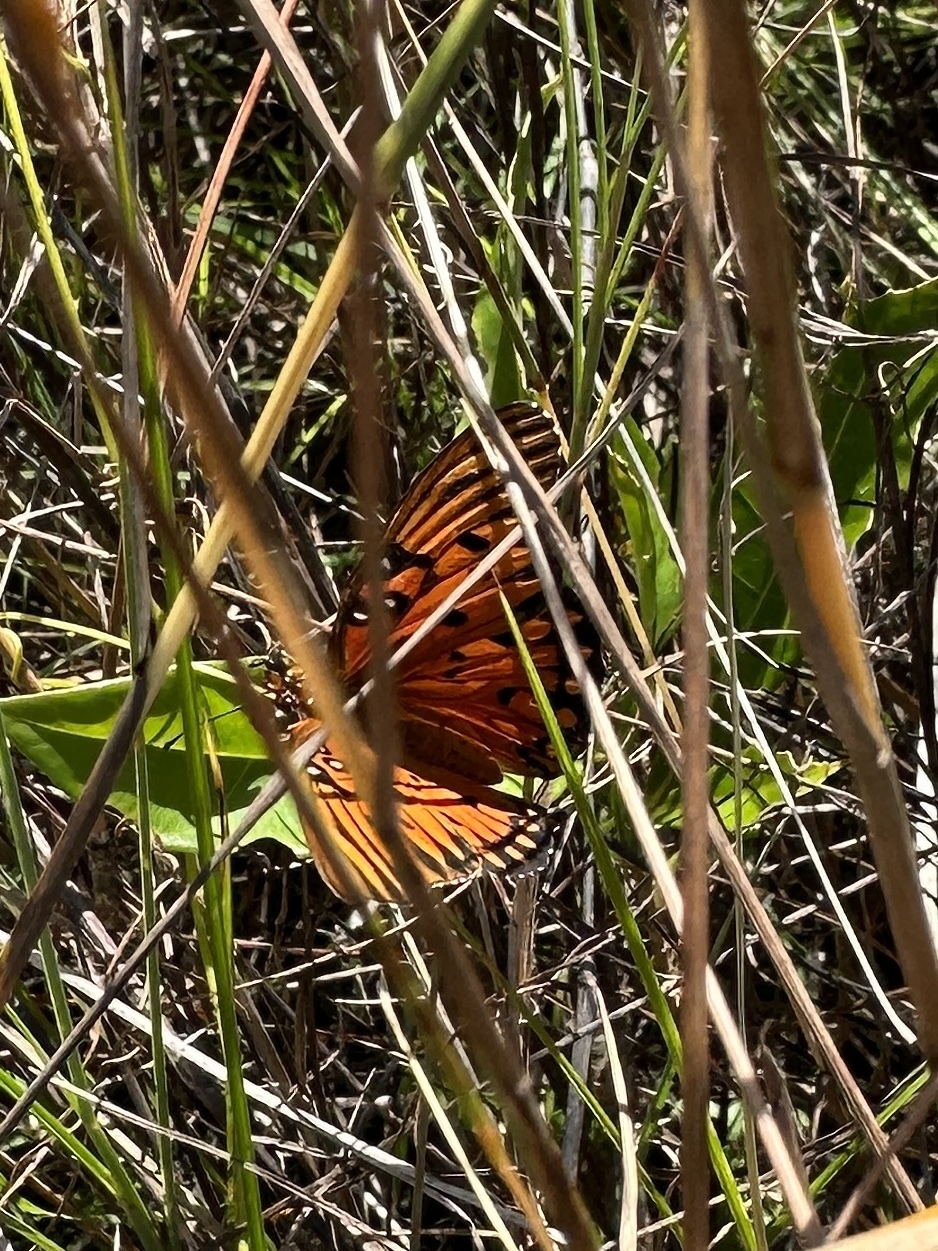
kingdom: Animalia
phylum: Arthropoda
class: Insecta
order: Lepidoptera
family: Nymphalidae
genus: Dione
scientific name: Dione vanillae
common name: Gulf fritillary
